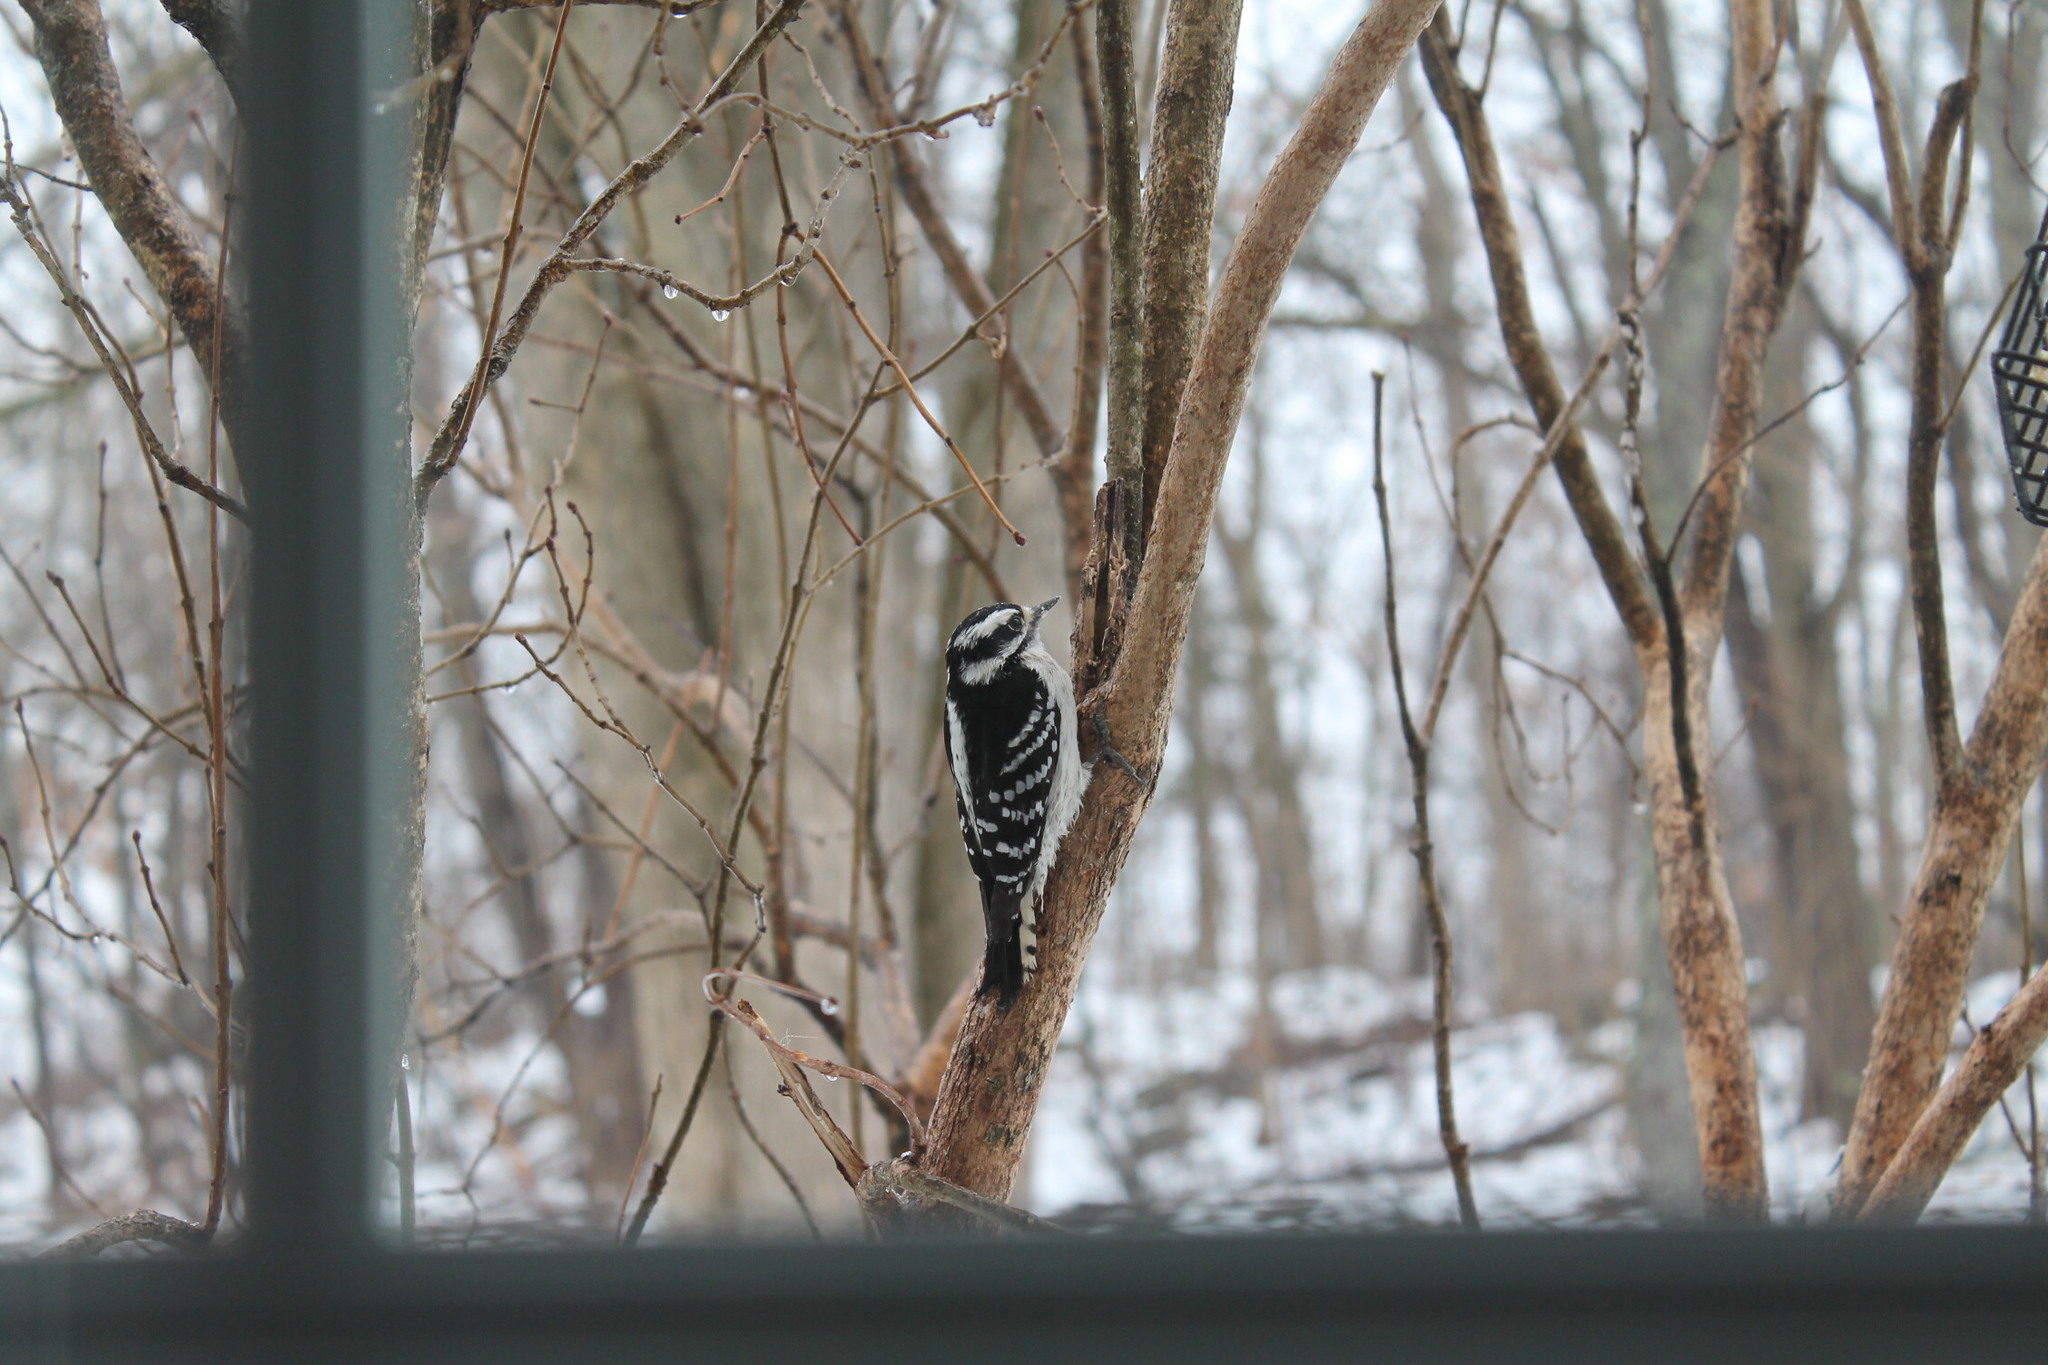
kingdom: Animalia
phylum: Chordata
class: Aves
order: Piciformes
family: Picidae
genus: Dryobates
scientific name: Dryobates pubescens
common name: Downy woodpecker
